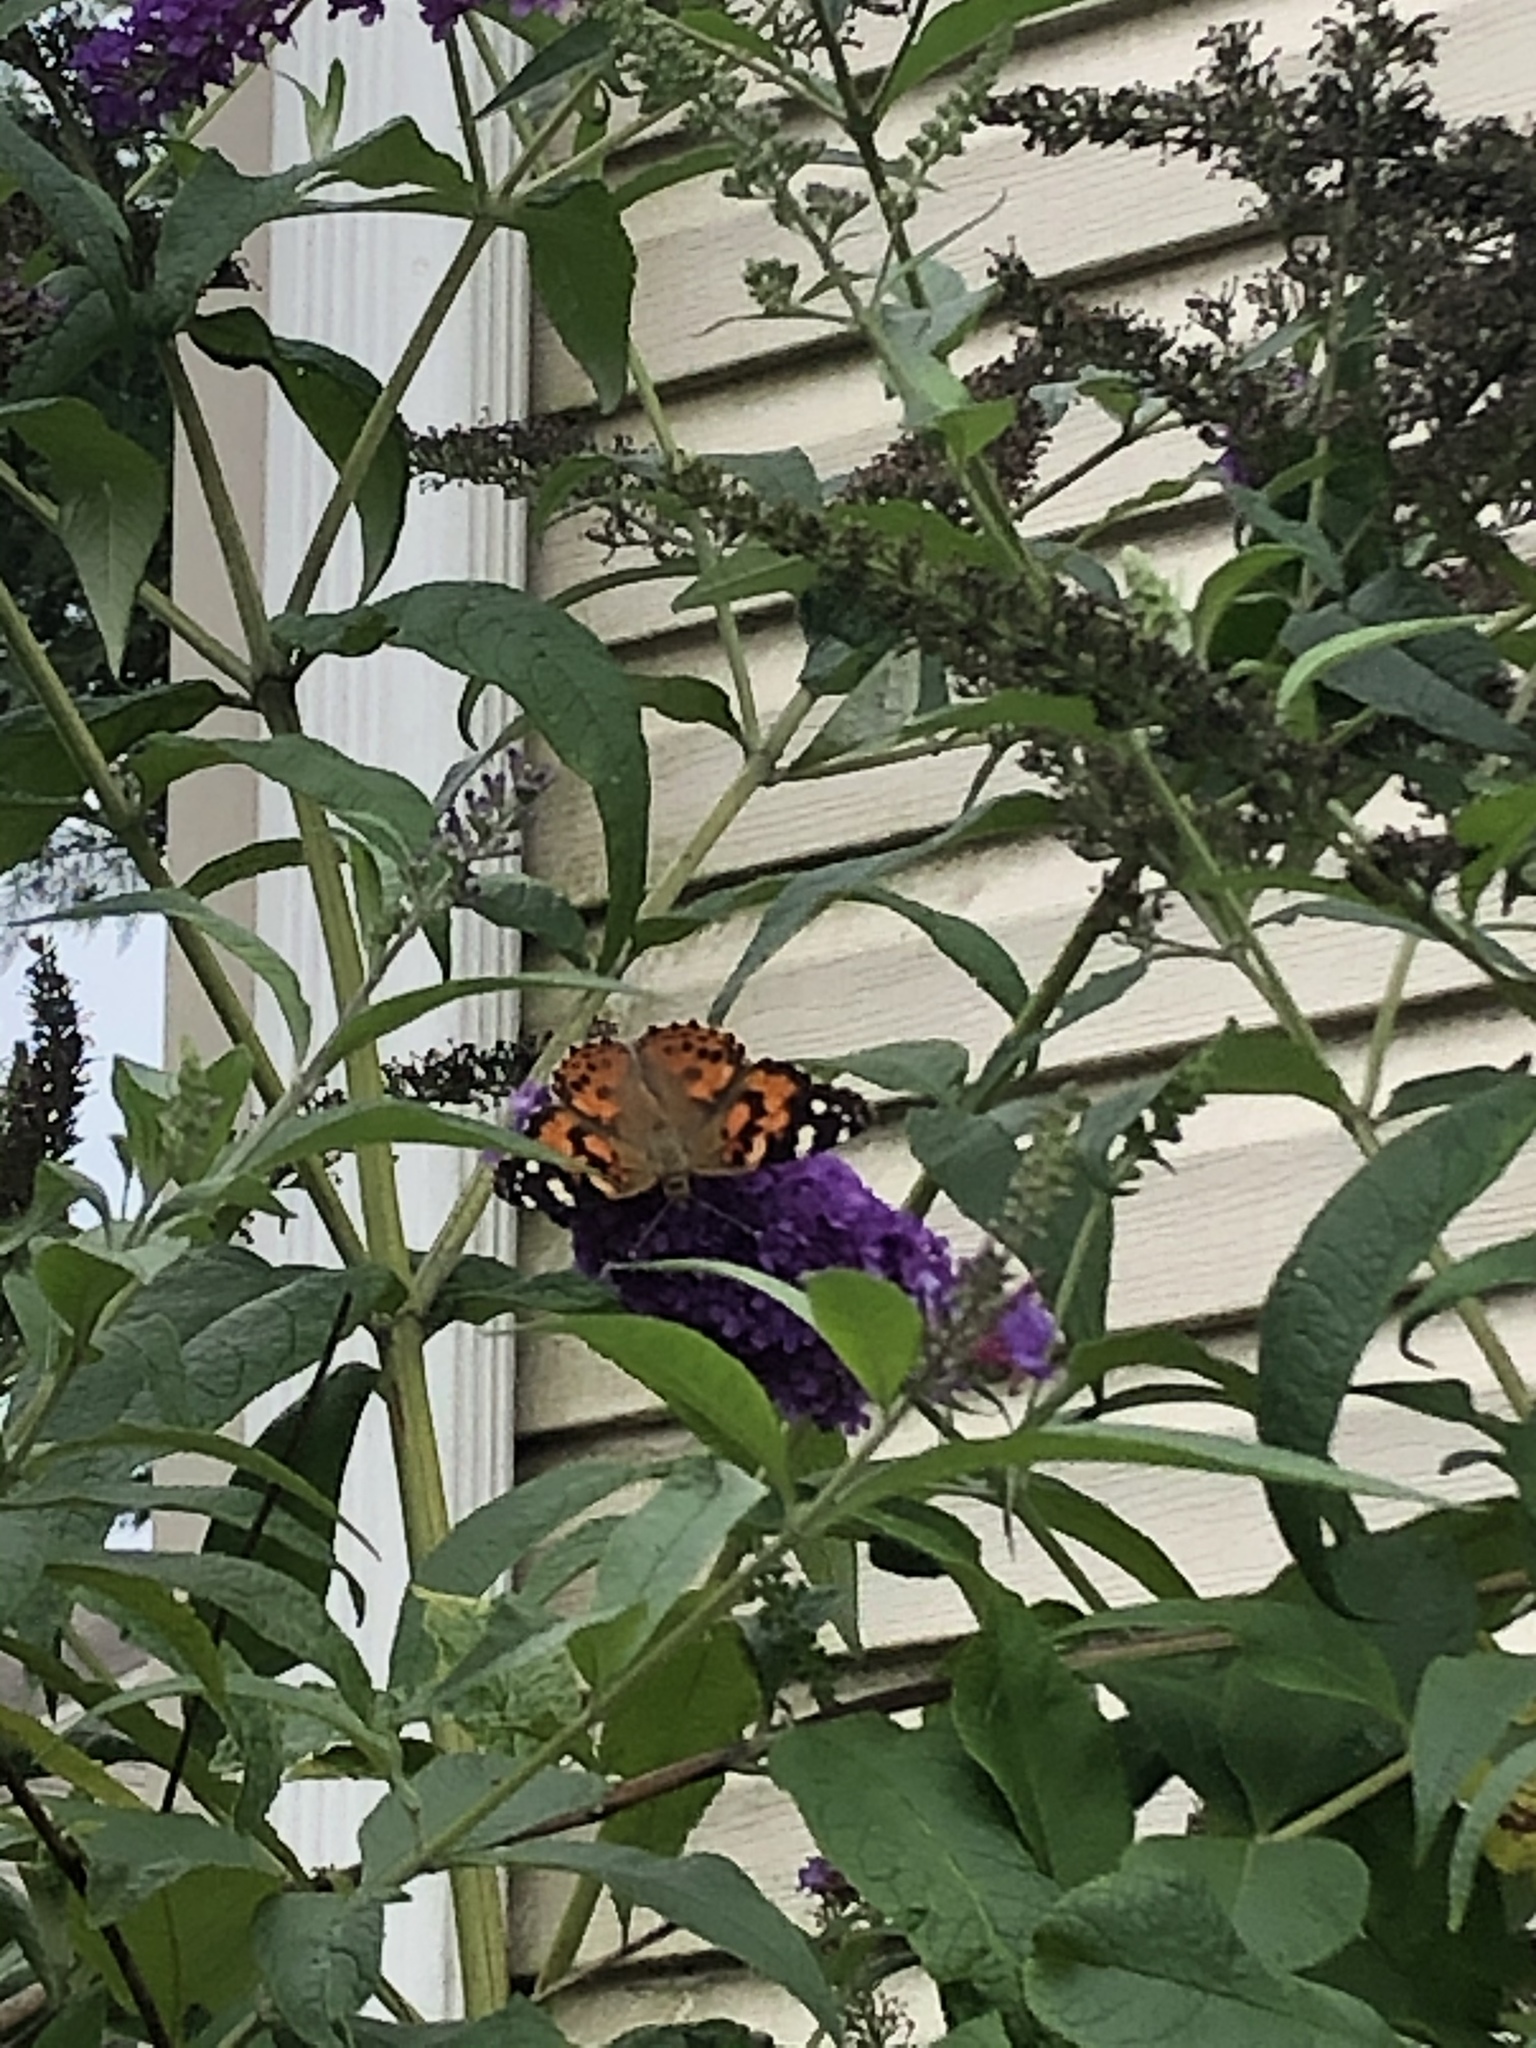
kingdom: Animalia
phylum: Arthropoda
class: Insecta
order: Lepidoptera
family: Nymphalidae
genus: Vanessa
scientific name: Vanessa cardui
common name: Painted lady
